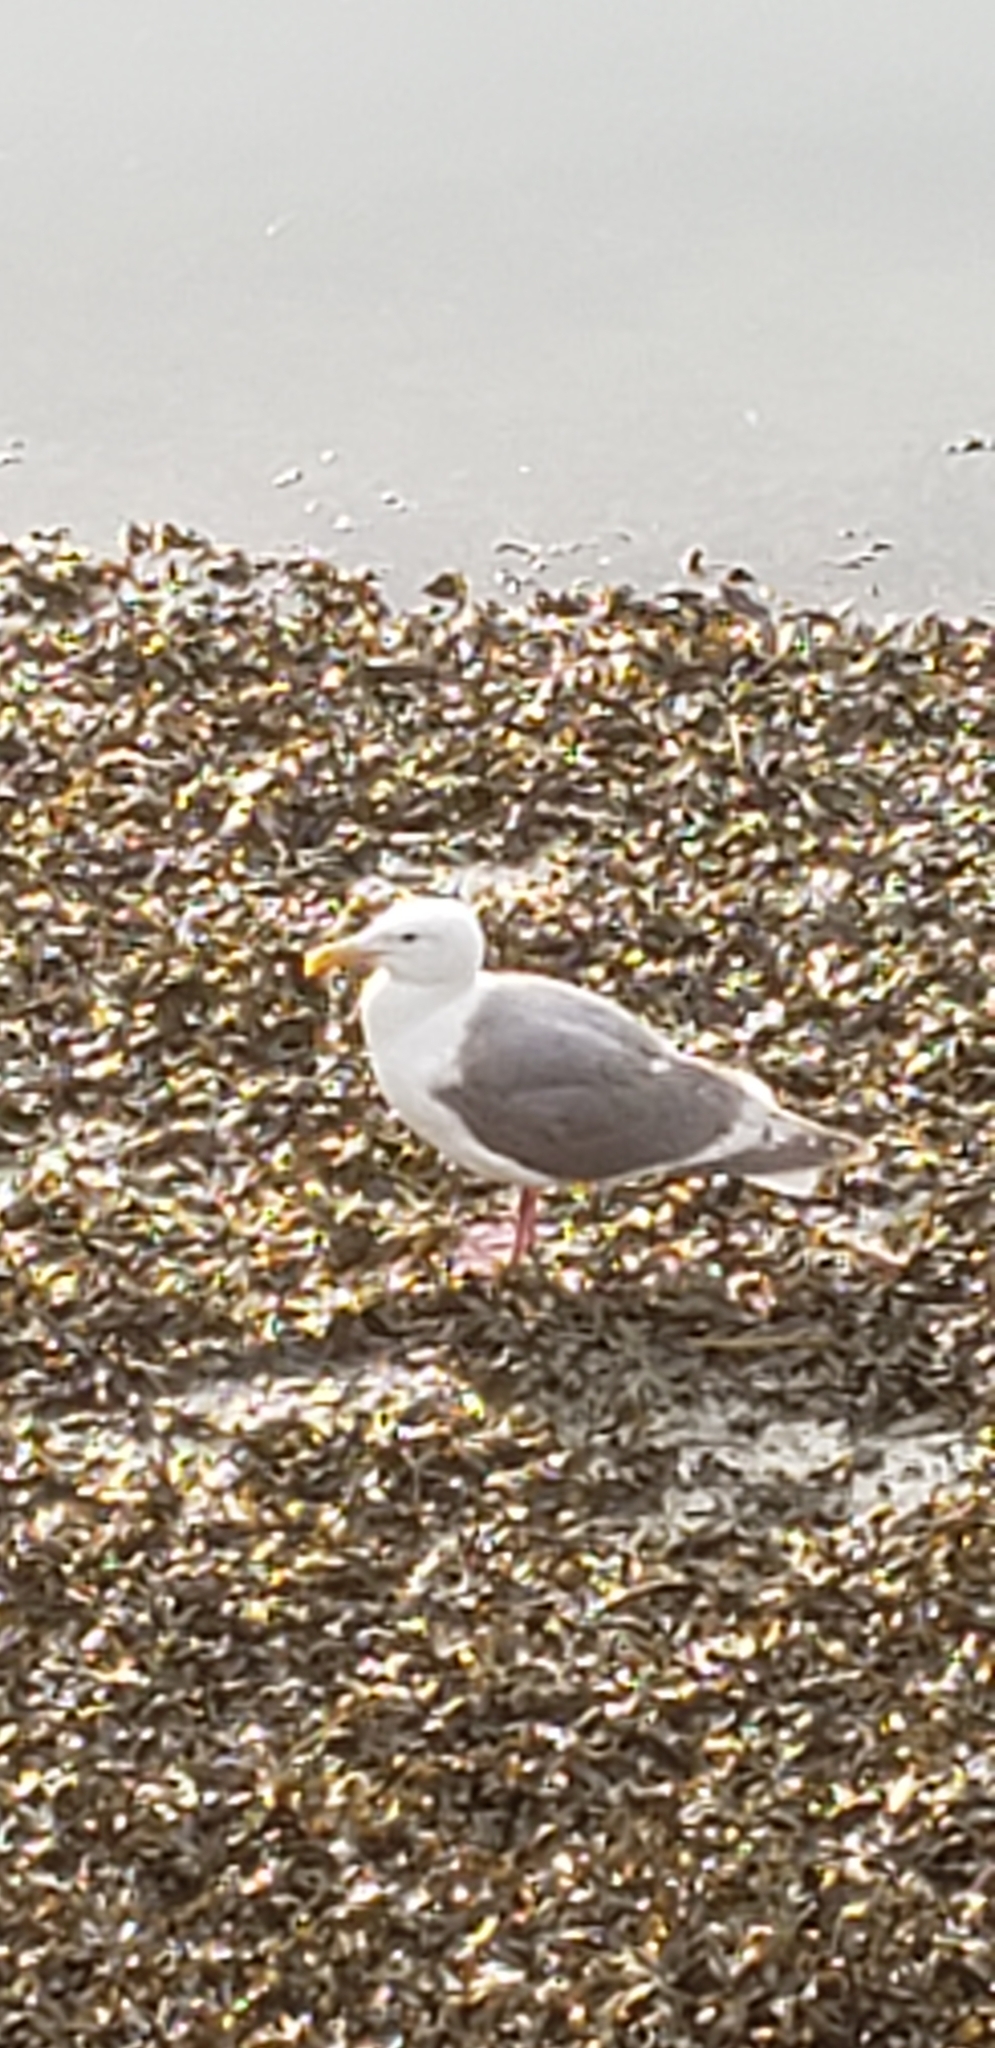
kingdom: Animalia
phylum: Chordata
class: Aves
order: Charadriiformes
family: Laridae
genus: Larus
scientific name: Larus glaucescens
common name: Glaucous-winged gull
